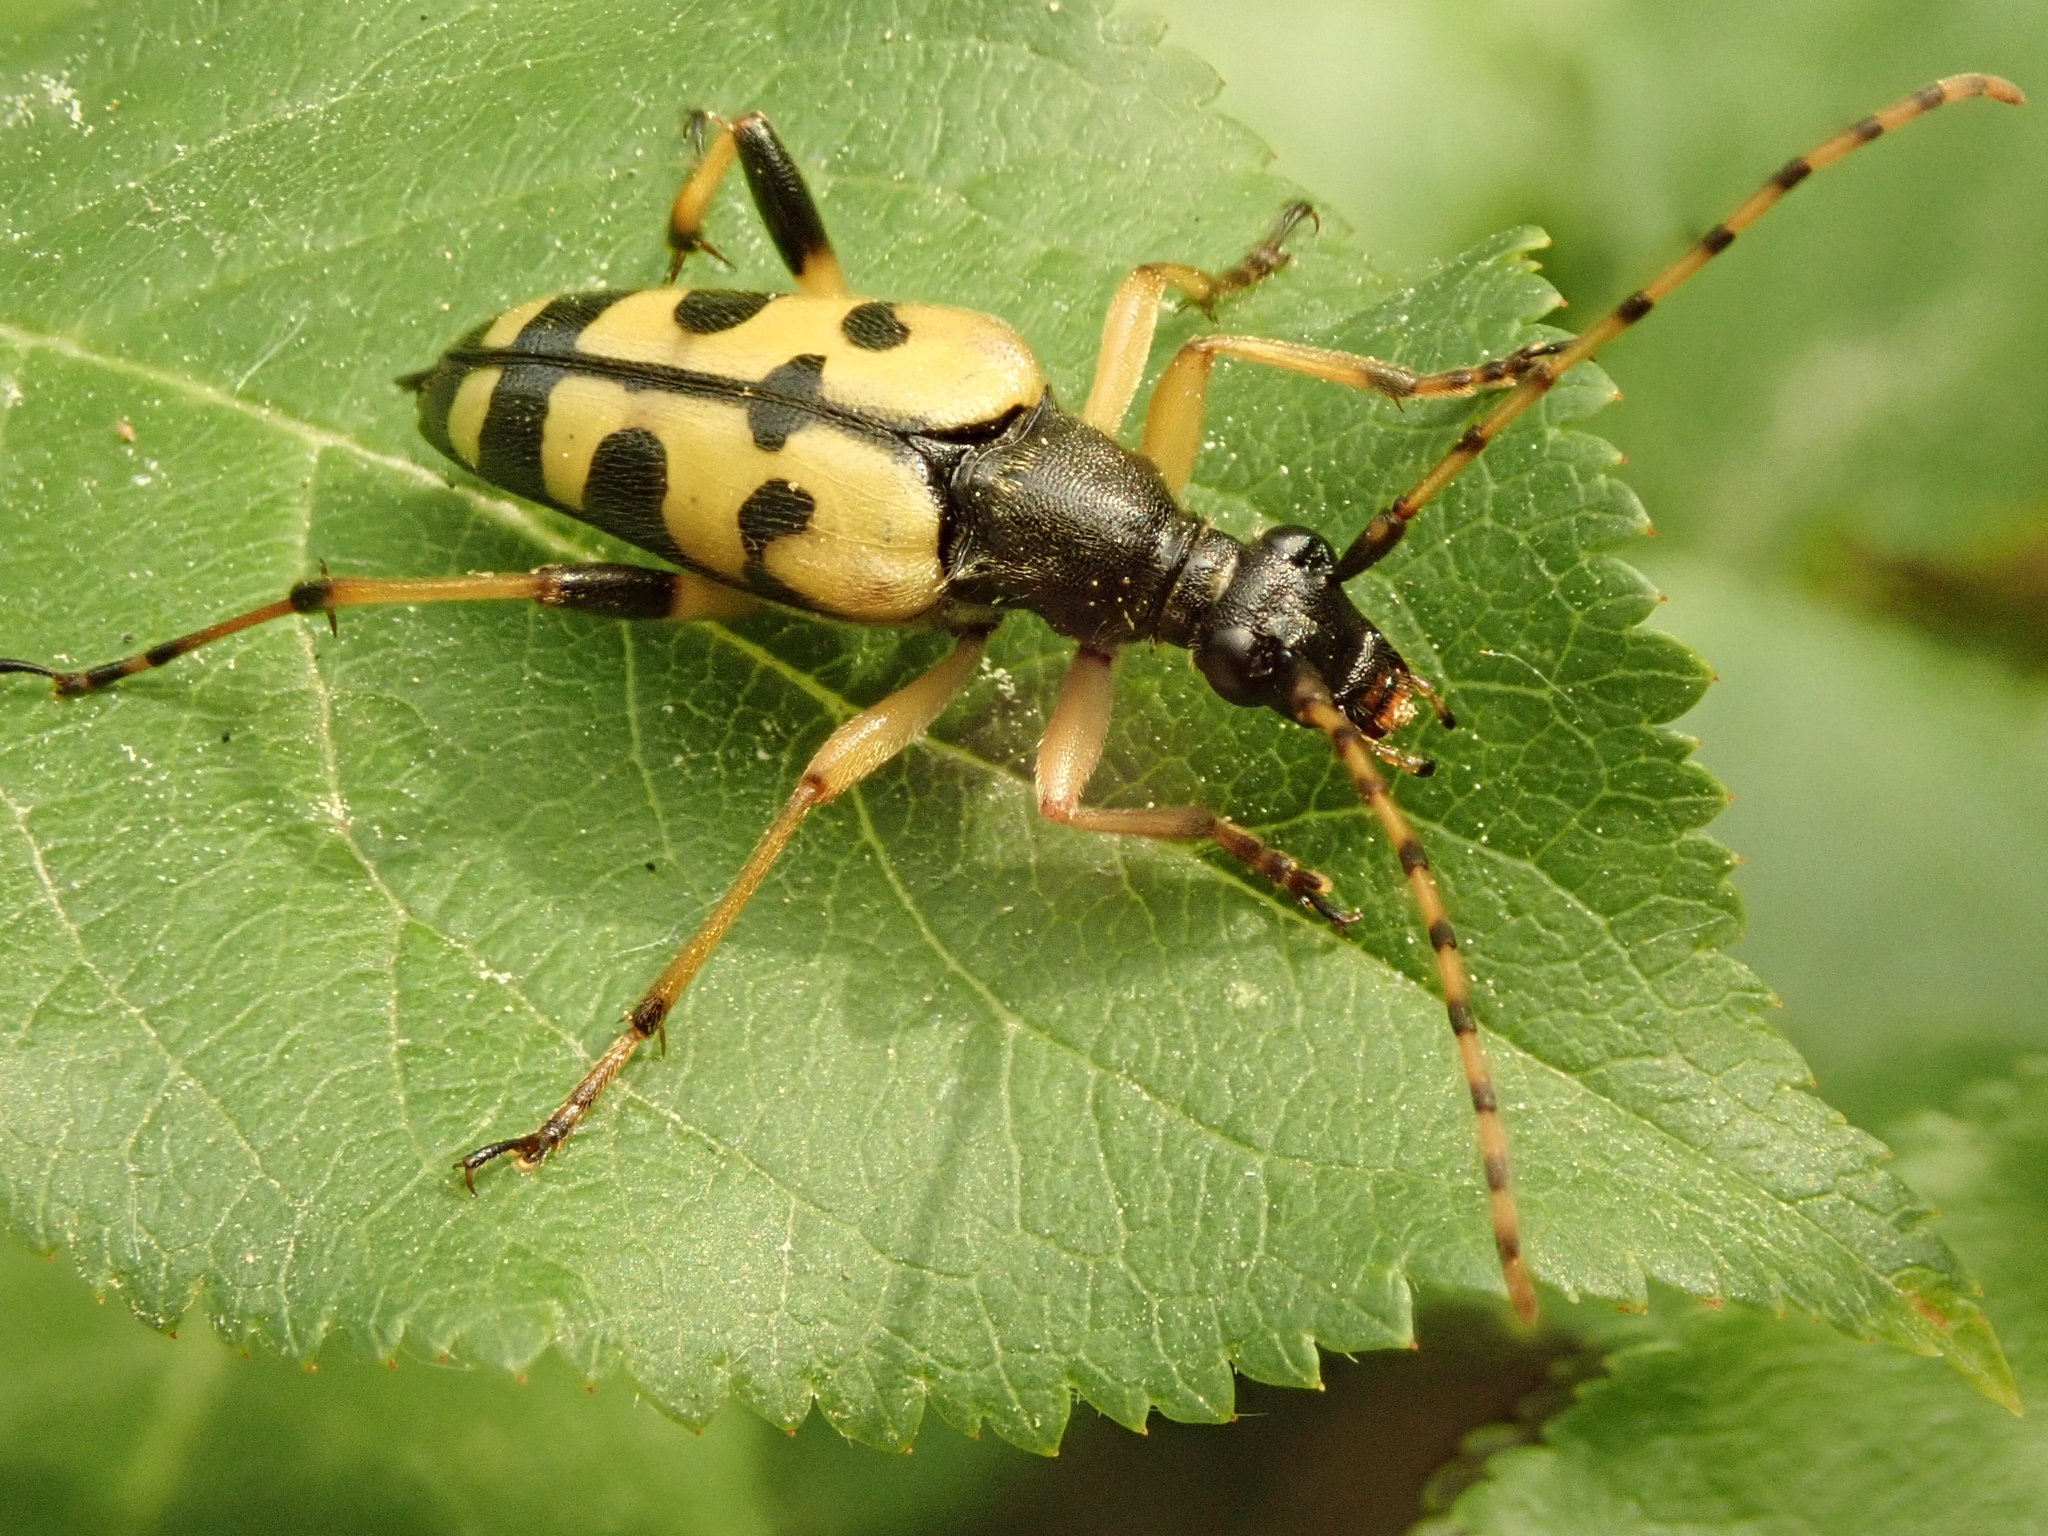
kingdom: Animalia
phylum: Arthropoda
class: Insecta
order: Coleoptera
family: Cerambycidae
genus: Rutpela
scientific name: Rutpela maculata
